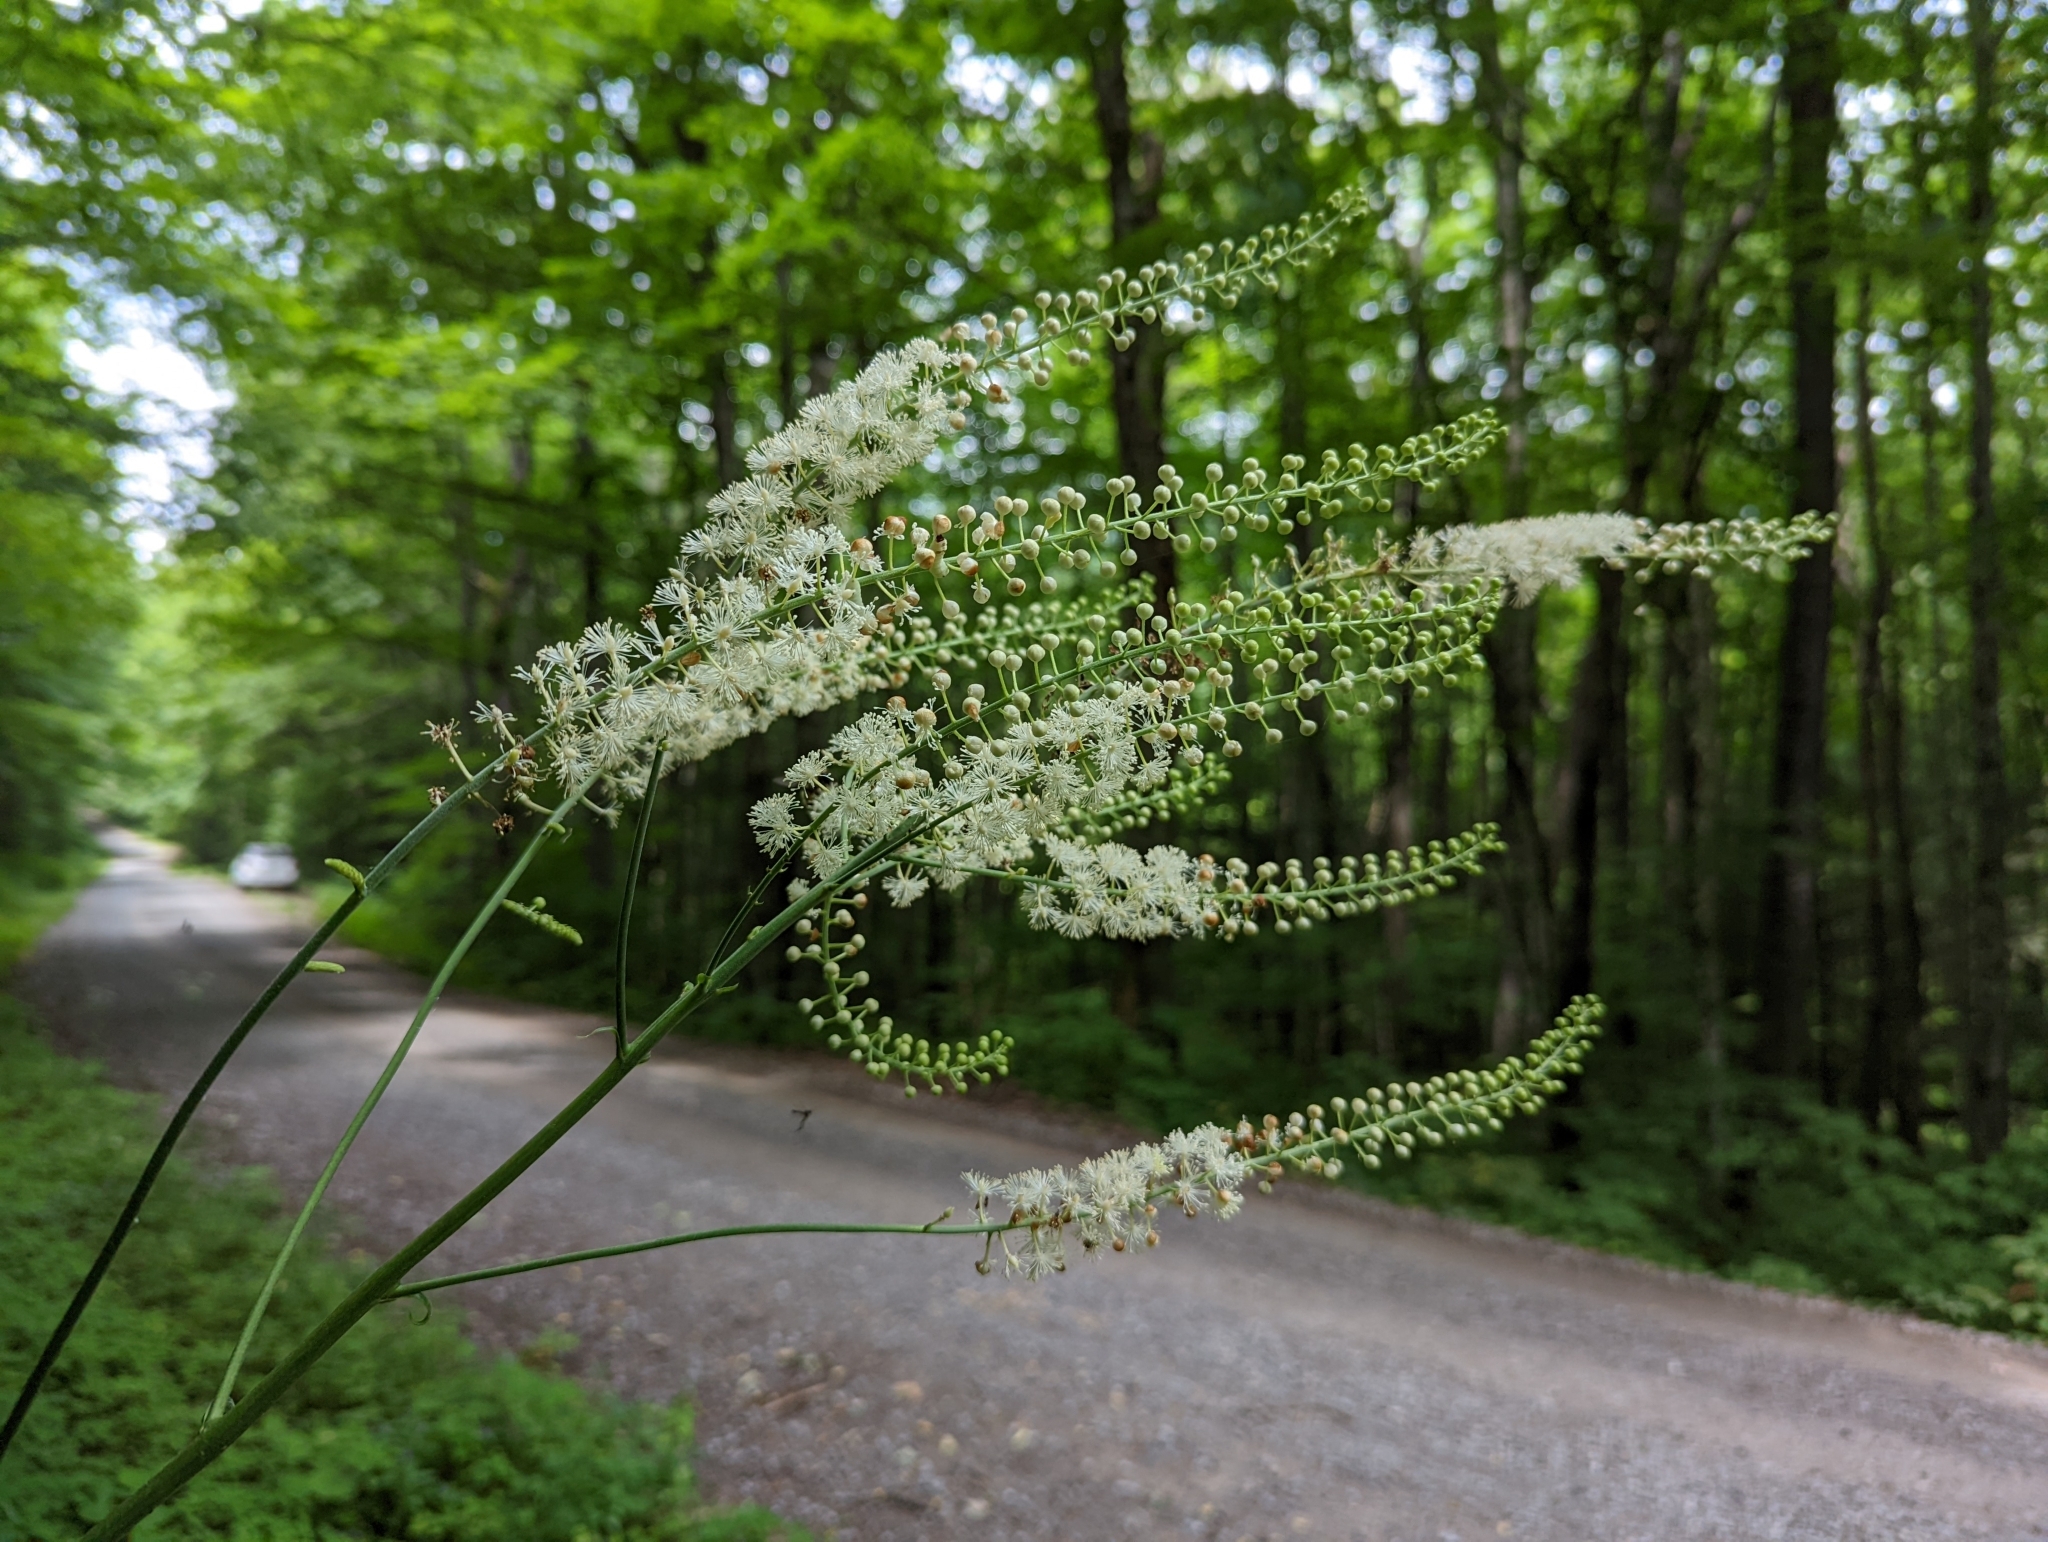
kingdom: Plantae
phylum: Tracheophyta
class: Magnoliopsida
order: Ranunculales
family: Ranunculaceae
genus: Actaea
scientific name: Actaea racemosa
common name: Black cohosh
